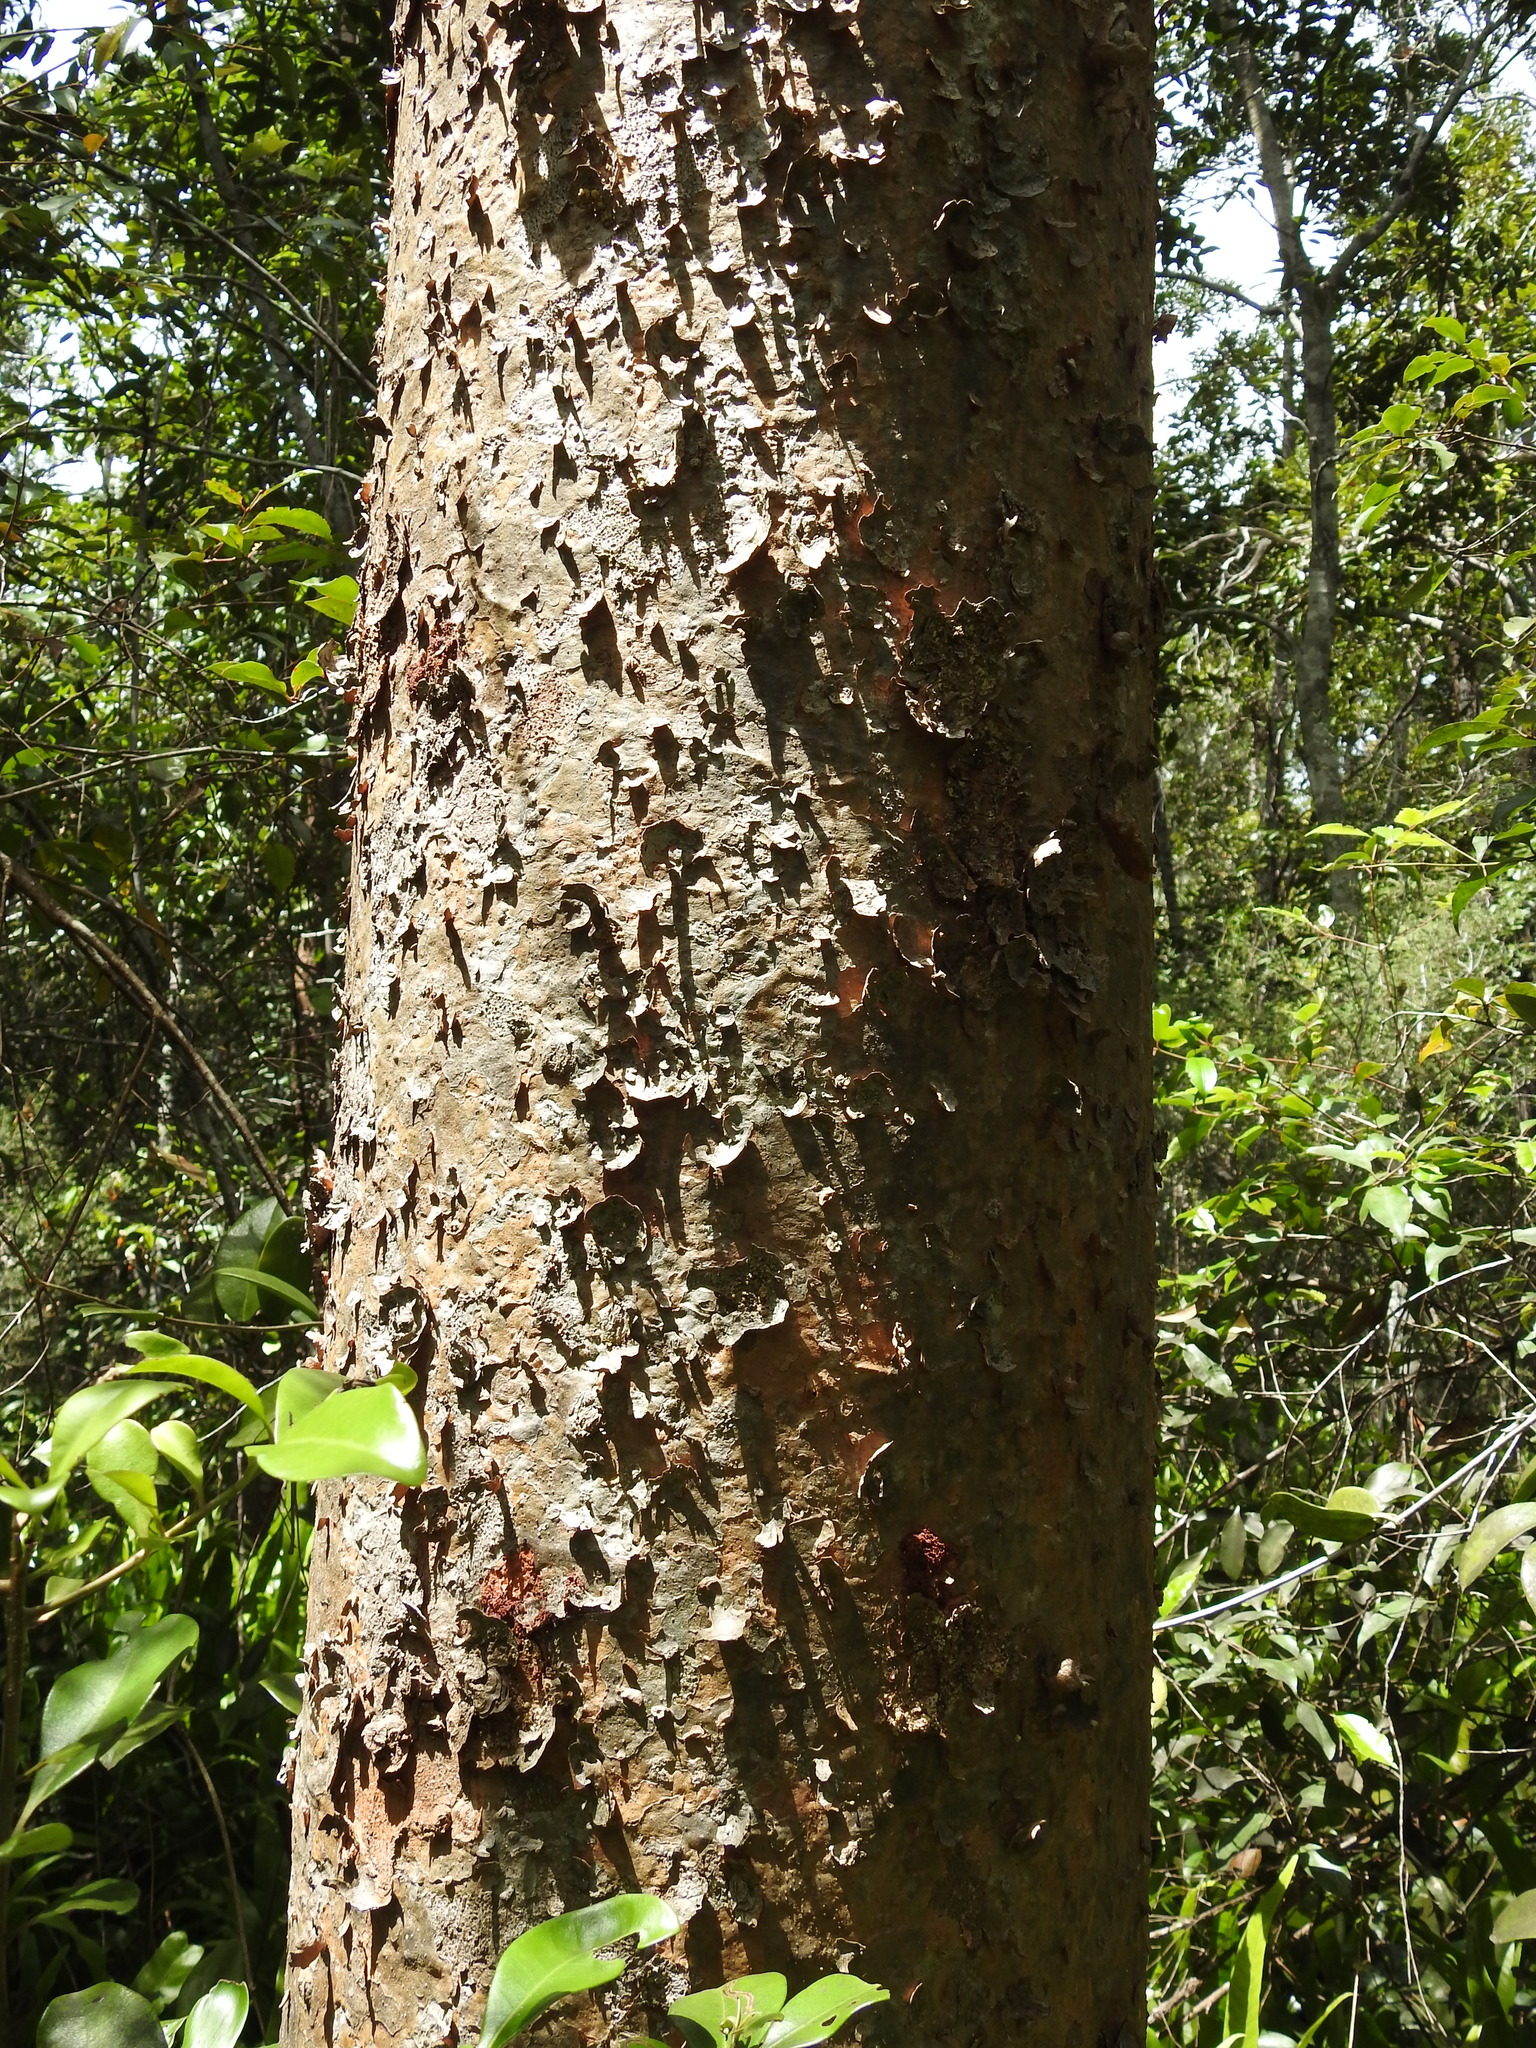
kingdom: Plantae
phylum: Tracheophyta
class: Pinopsida
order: Pinales
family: Araucariaceae
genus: Agathis
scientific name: Agathis robusta
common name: Australian-kauri
